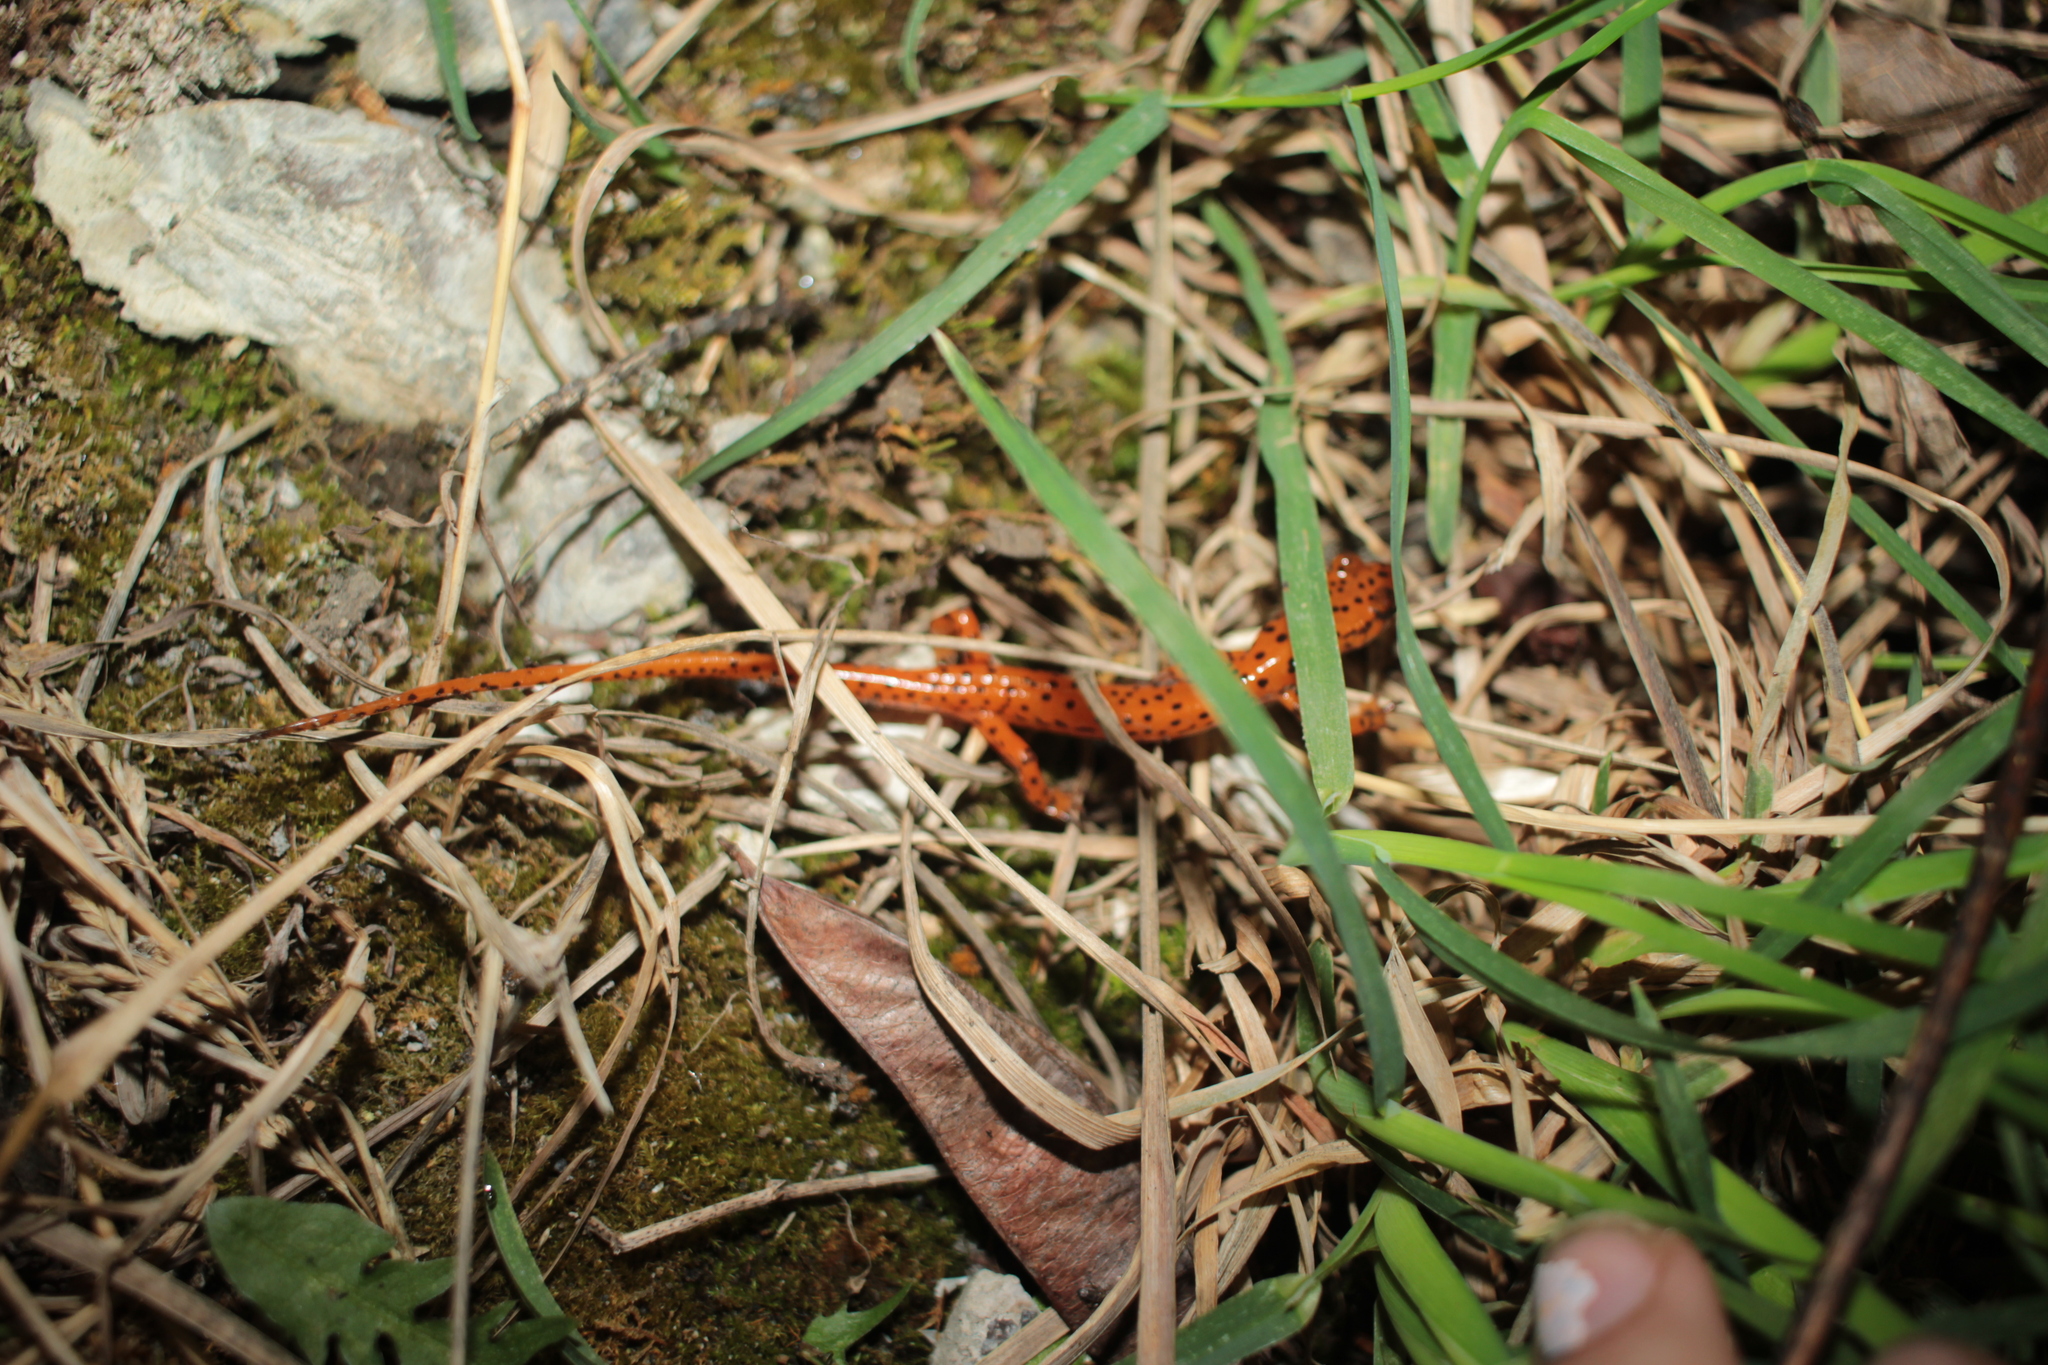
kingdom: Animalia
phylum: Chordata
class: Amphibia
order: Caudata
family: Plethodontidae
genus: Eurycea
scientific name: Eurycea lucifuga
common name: Cave salamander
